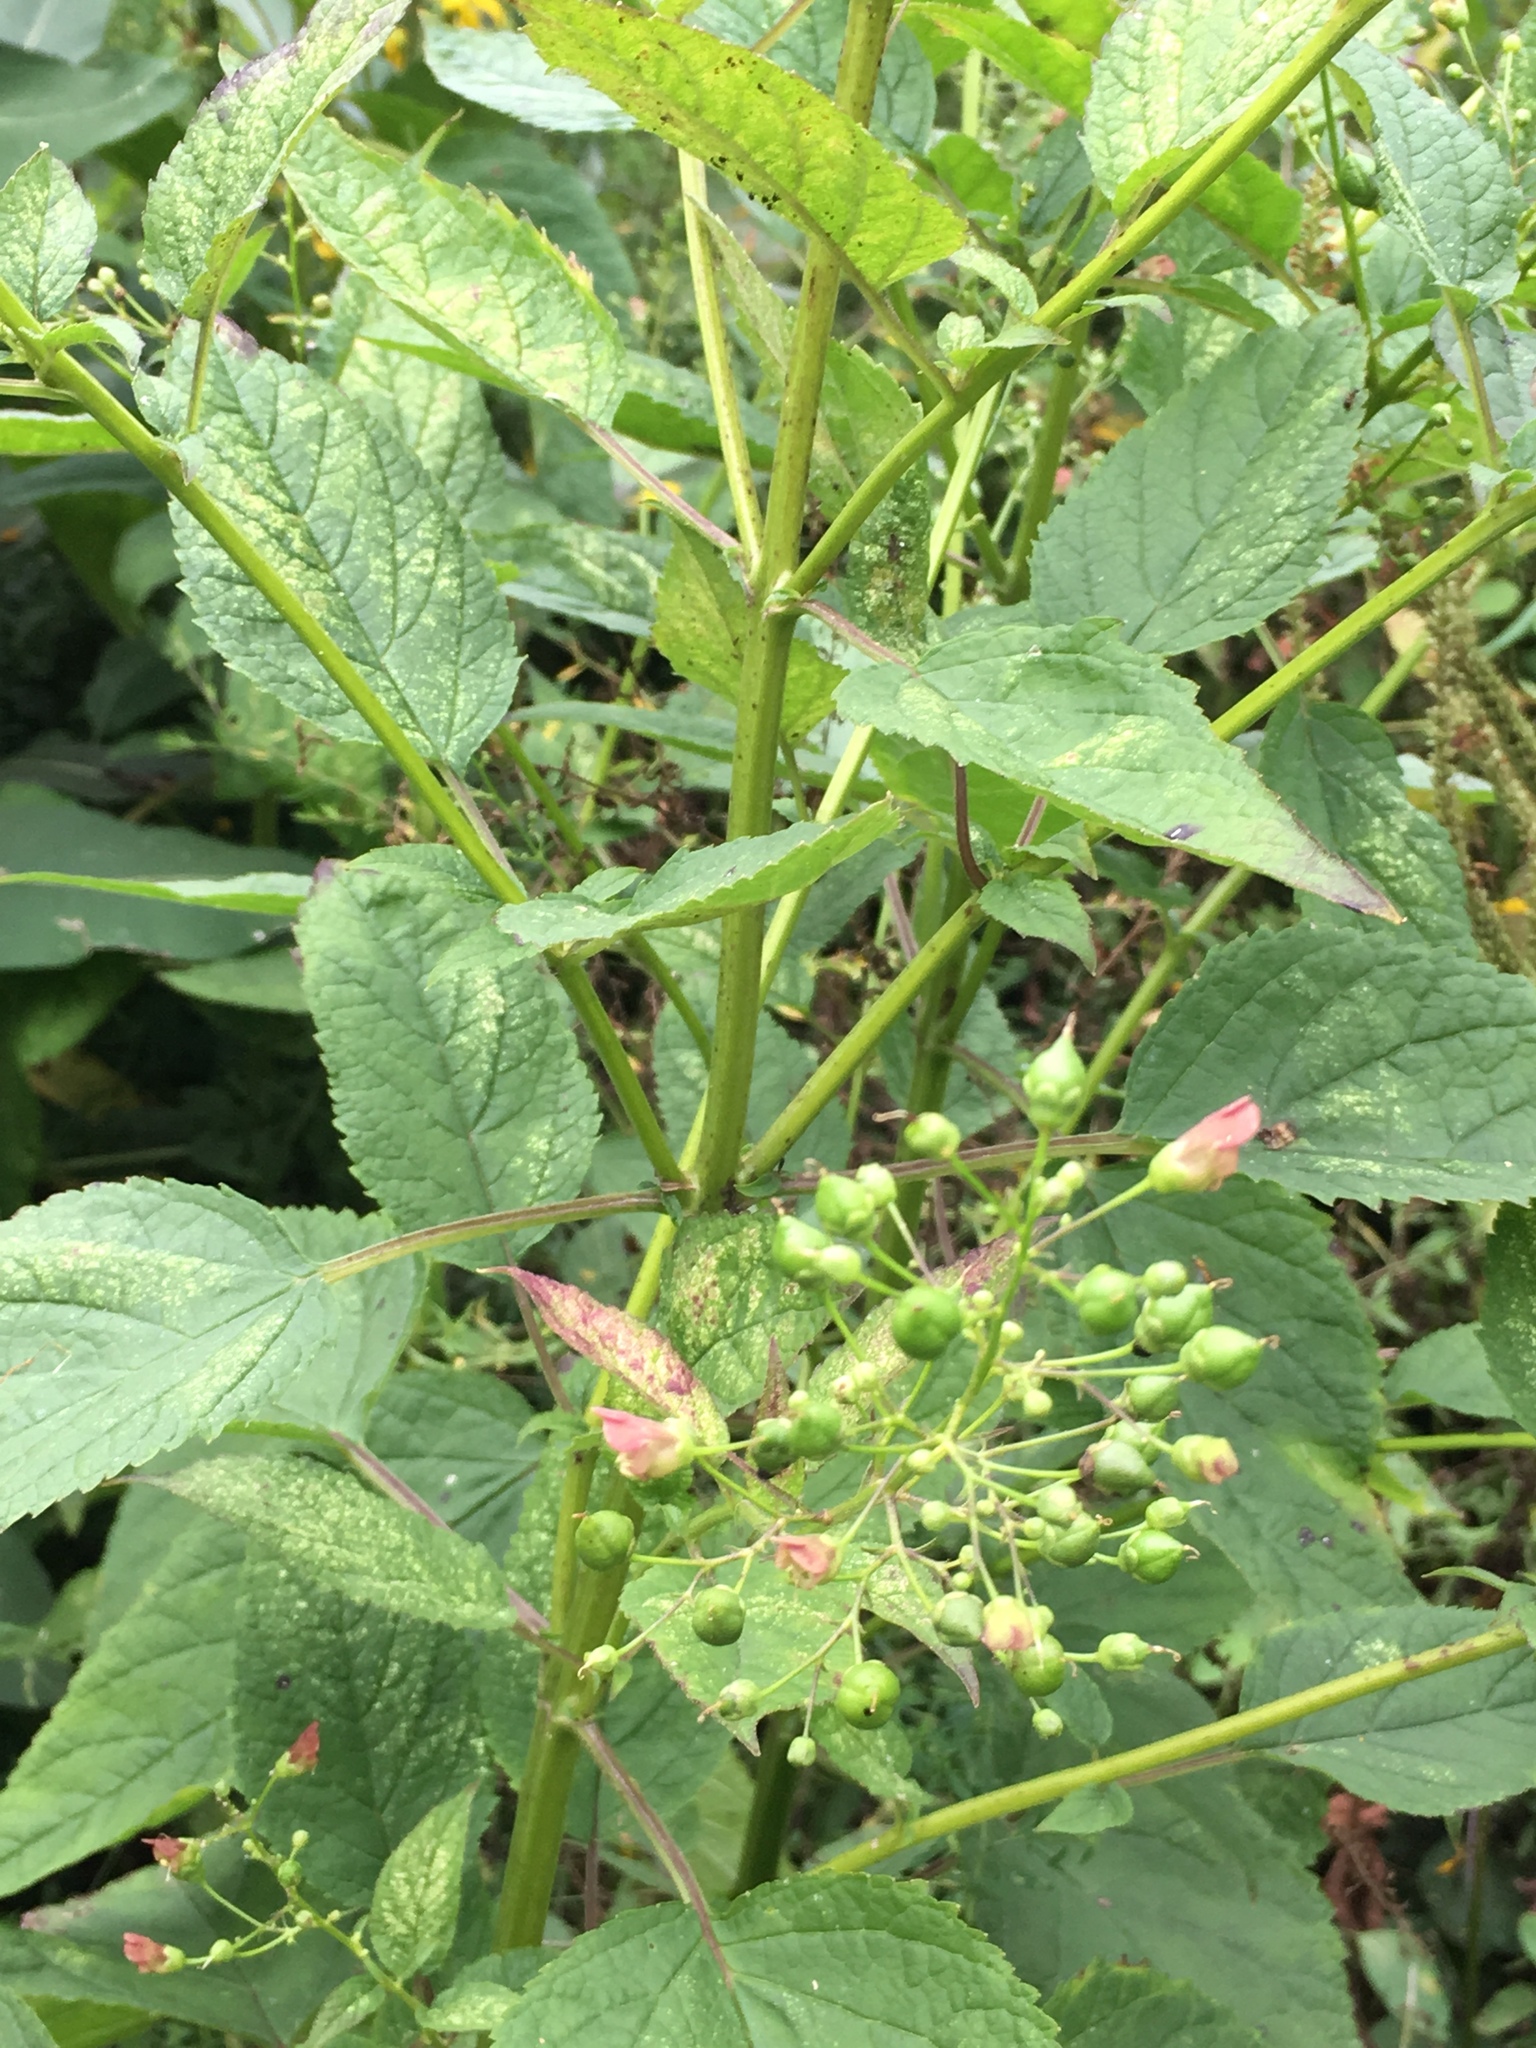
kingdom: Plantae
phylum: Tracheophyta
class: Magnoliopsida
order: Lamiales
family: Scrophulariaceae
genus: Scrophularia
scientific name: Scrophularia marilandica
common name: Eastern figwort
